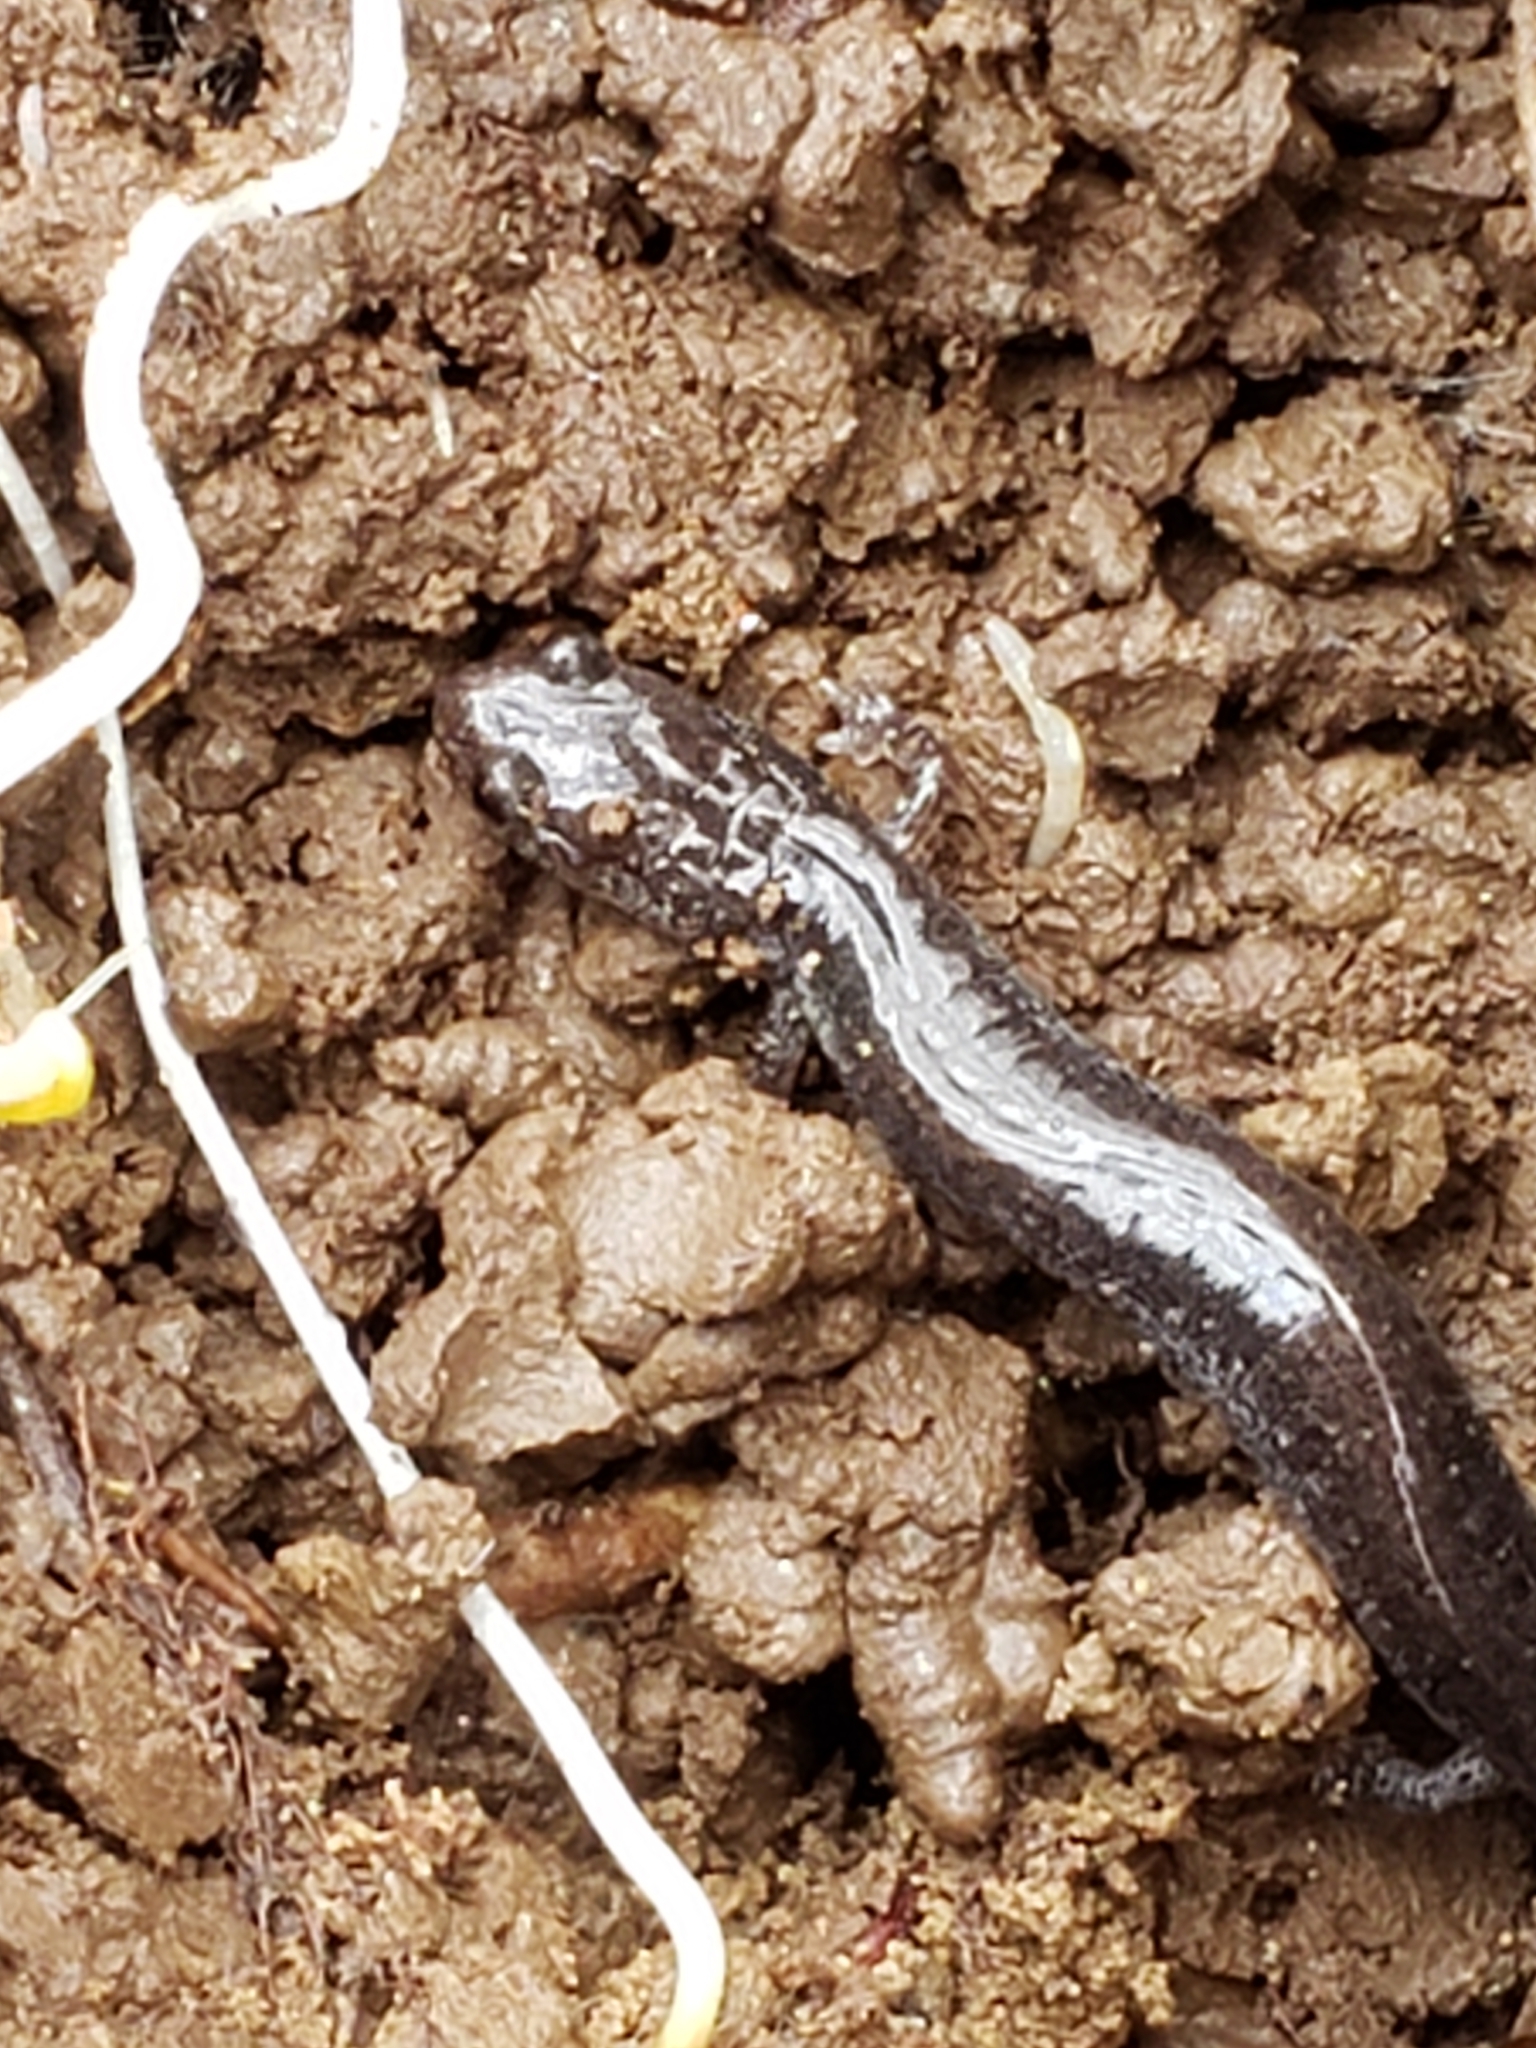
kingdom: Animalia
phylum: Chordata
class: Amphibia
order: Caudata
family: Plethodontidae
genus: Plethodon
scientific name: Plethodon cinereus
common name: Redback salamander
